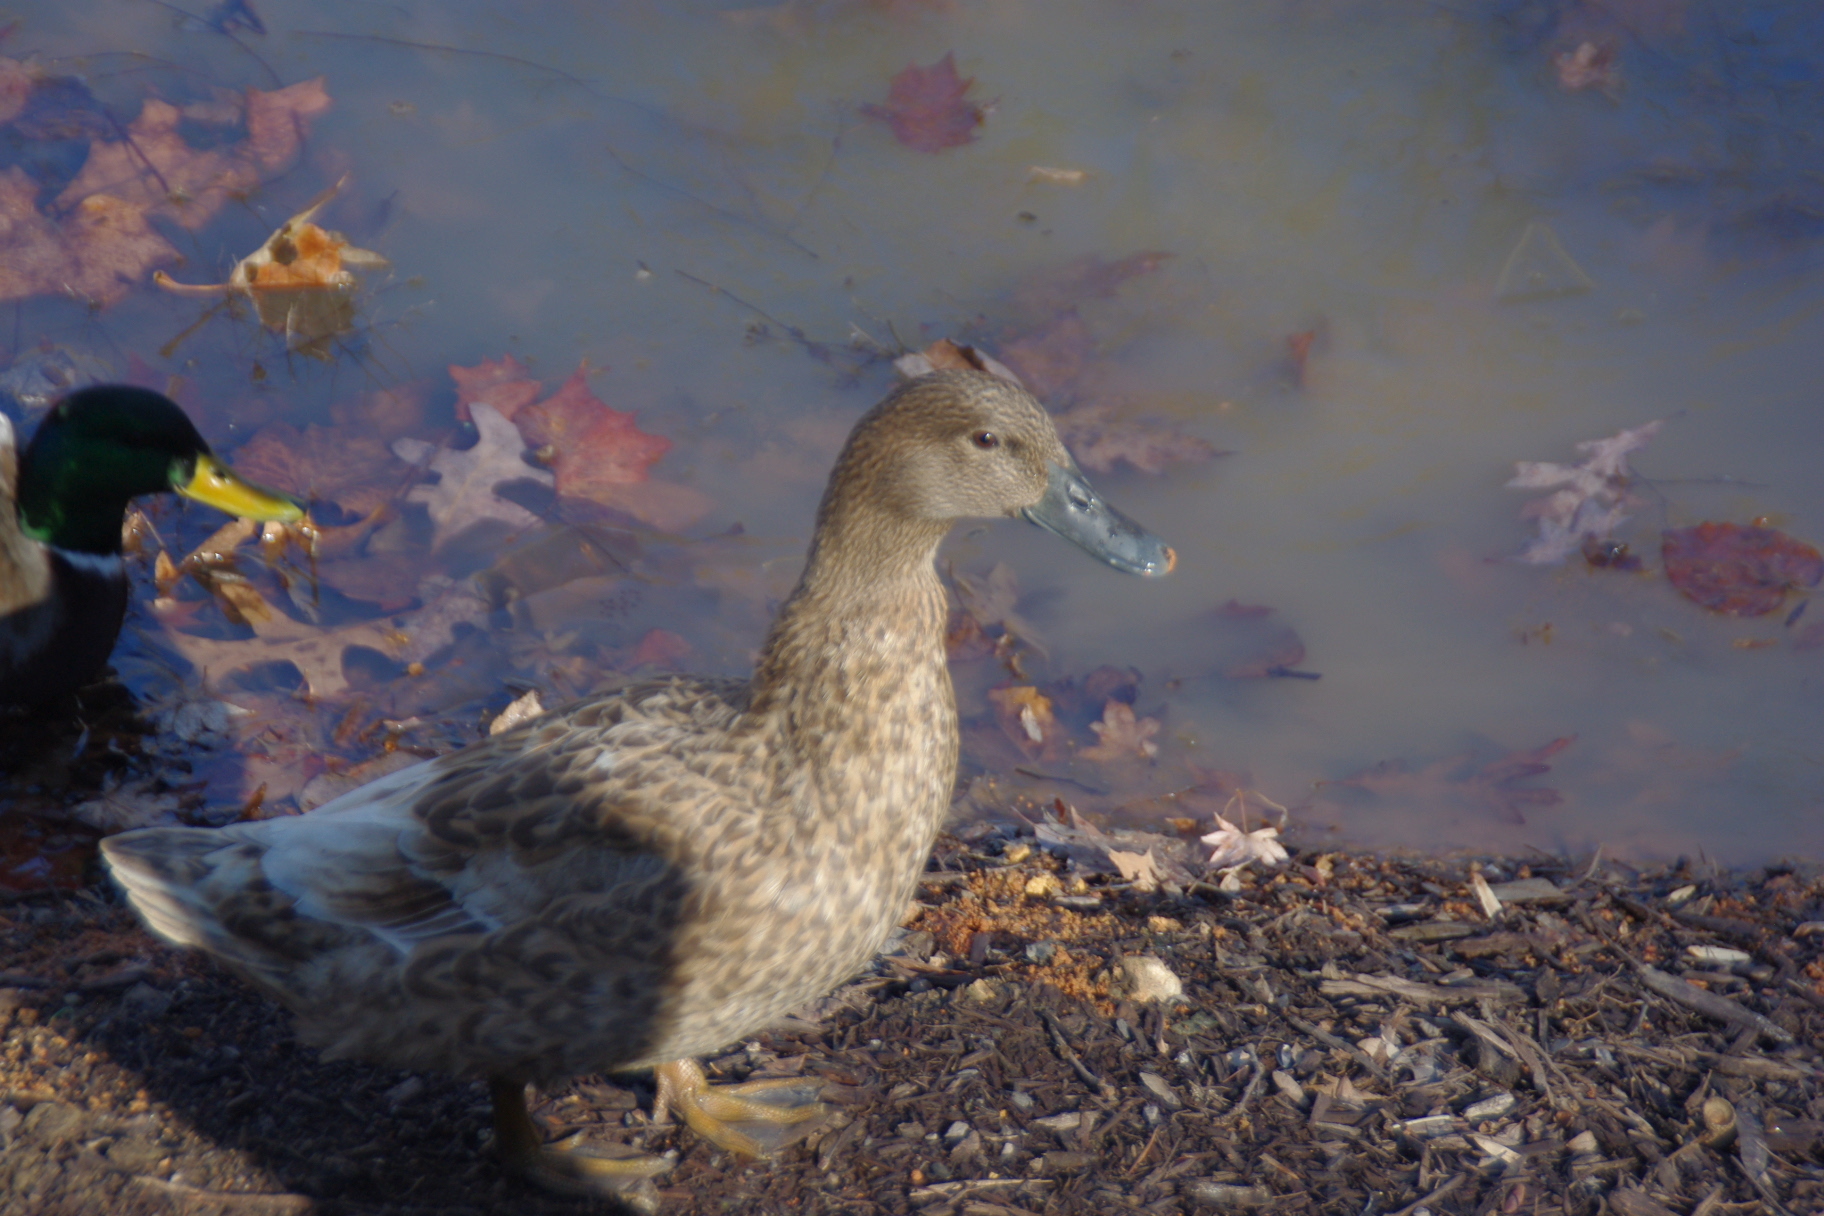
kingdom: Animalia
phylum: Chordata
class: Aves
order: Anseriformes
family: Anatidae
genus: Anas
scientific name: Anas platyrhynchos
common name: Mallard
